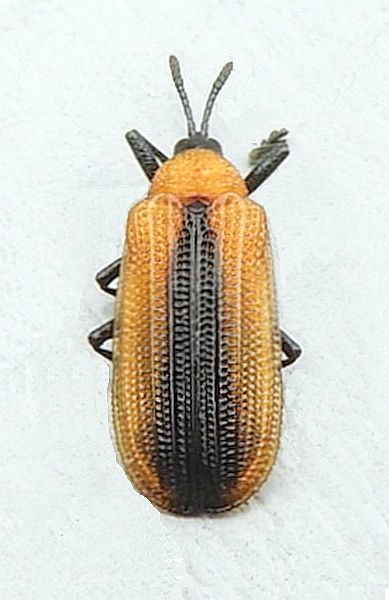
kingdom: Animalia
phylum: Arthropoda
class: Insecta
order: Coleoptera
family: Chrysomelidae
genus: Odontota
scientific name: Odontota dorsalis
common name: Locust leaf-miner beetle
